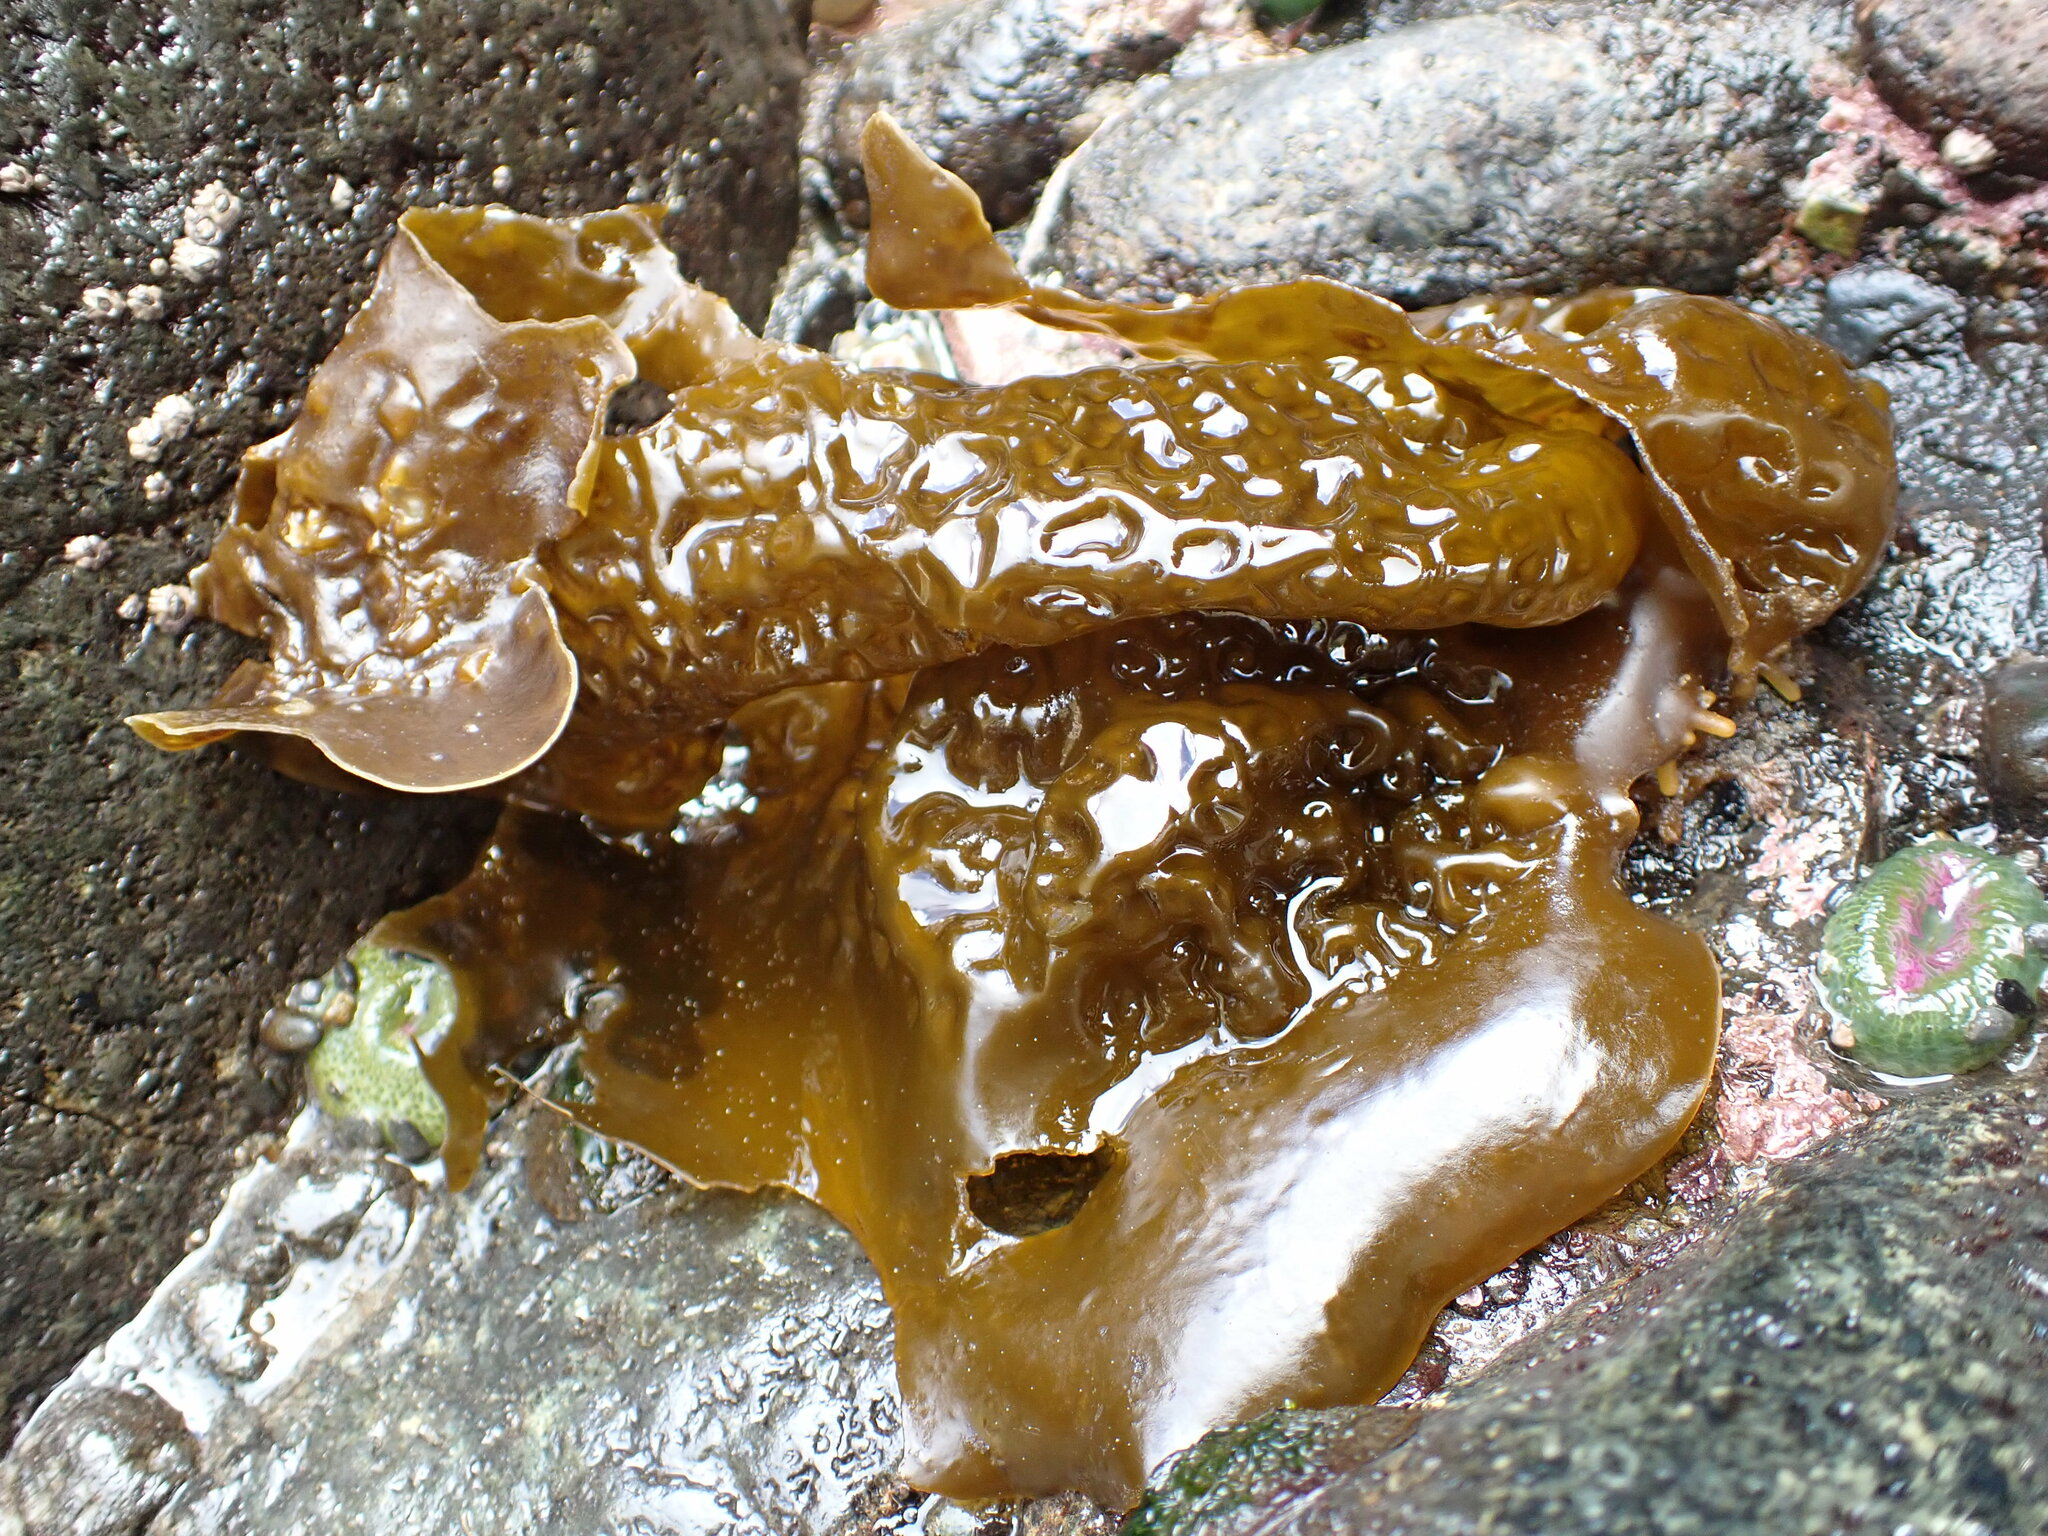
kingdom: Chromista
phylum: Ochrophyta
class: Phaeophyceae
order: Laminariales
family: Laminariaceae
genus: Hedophyllum
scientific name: Hedophyllum sessile
